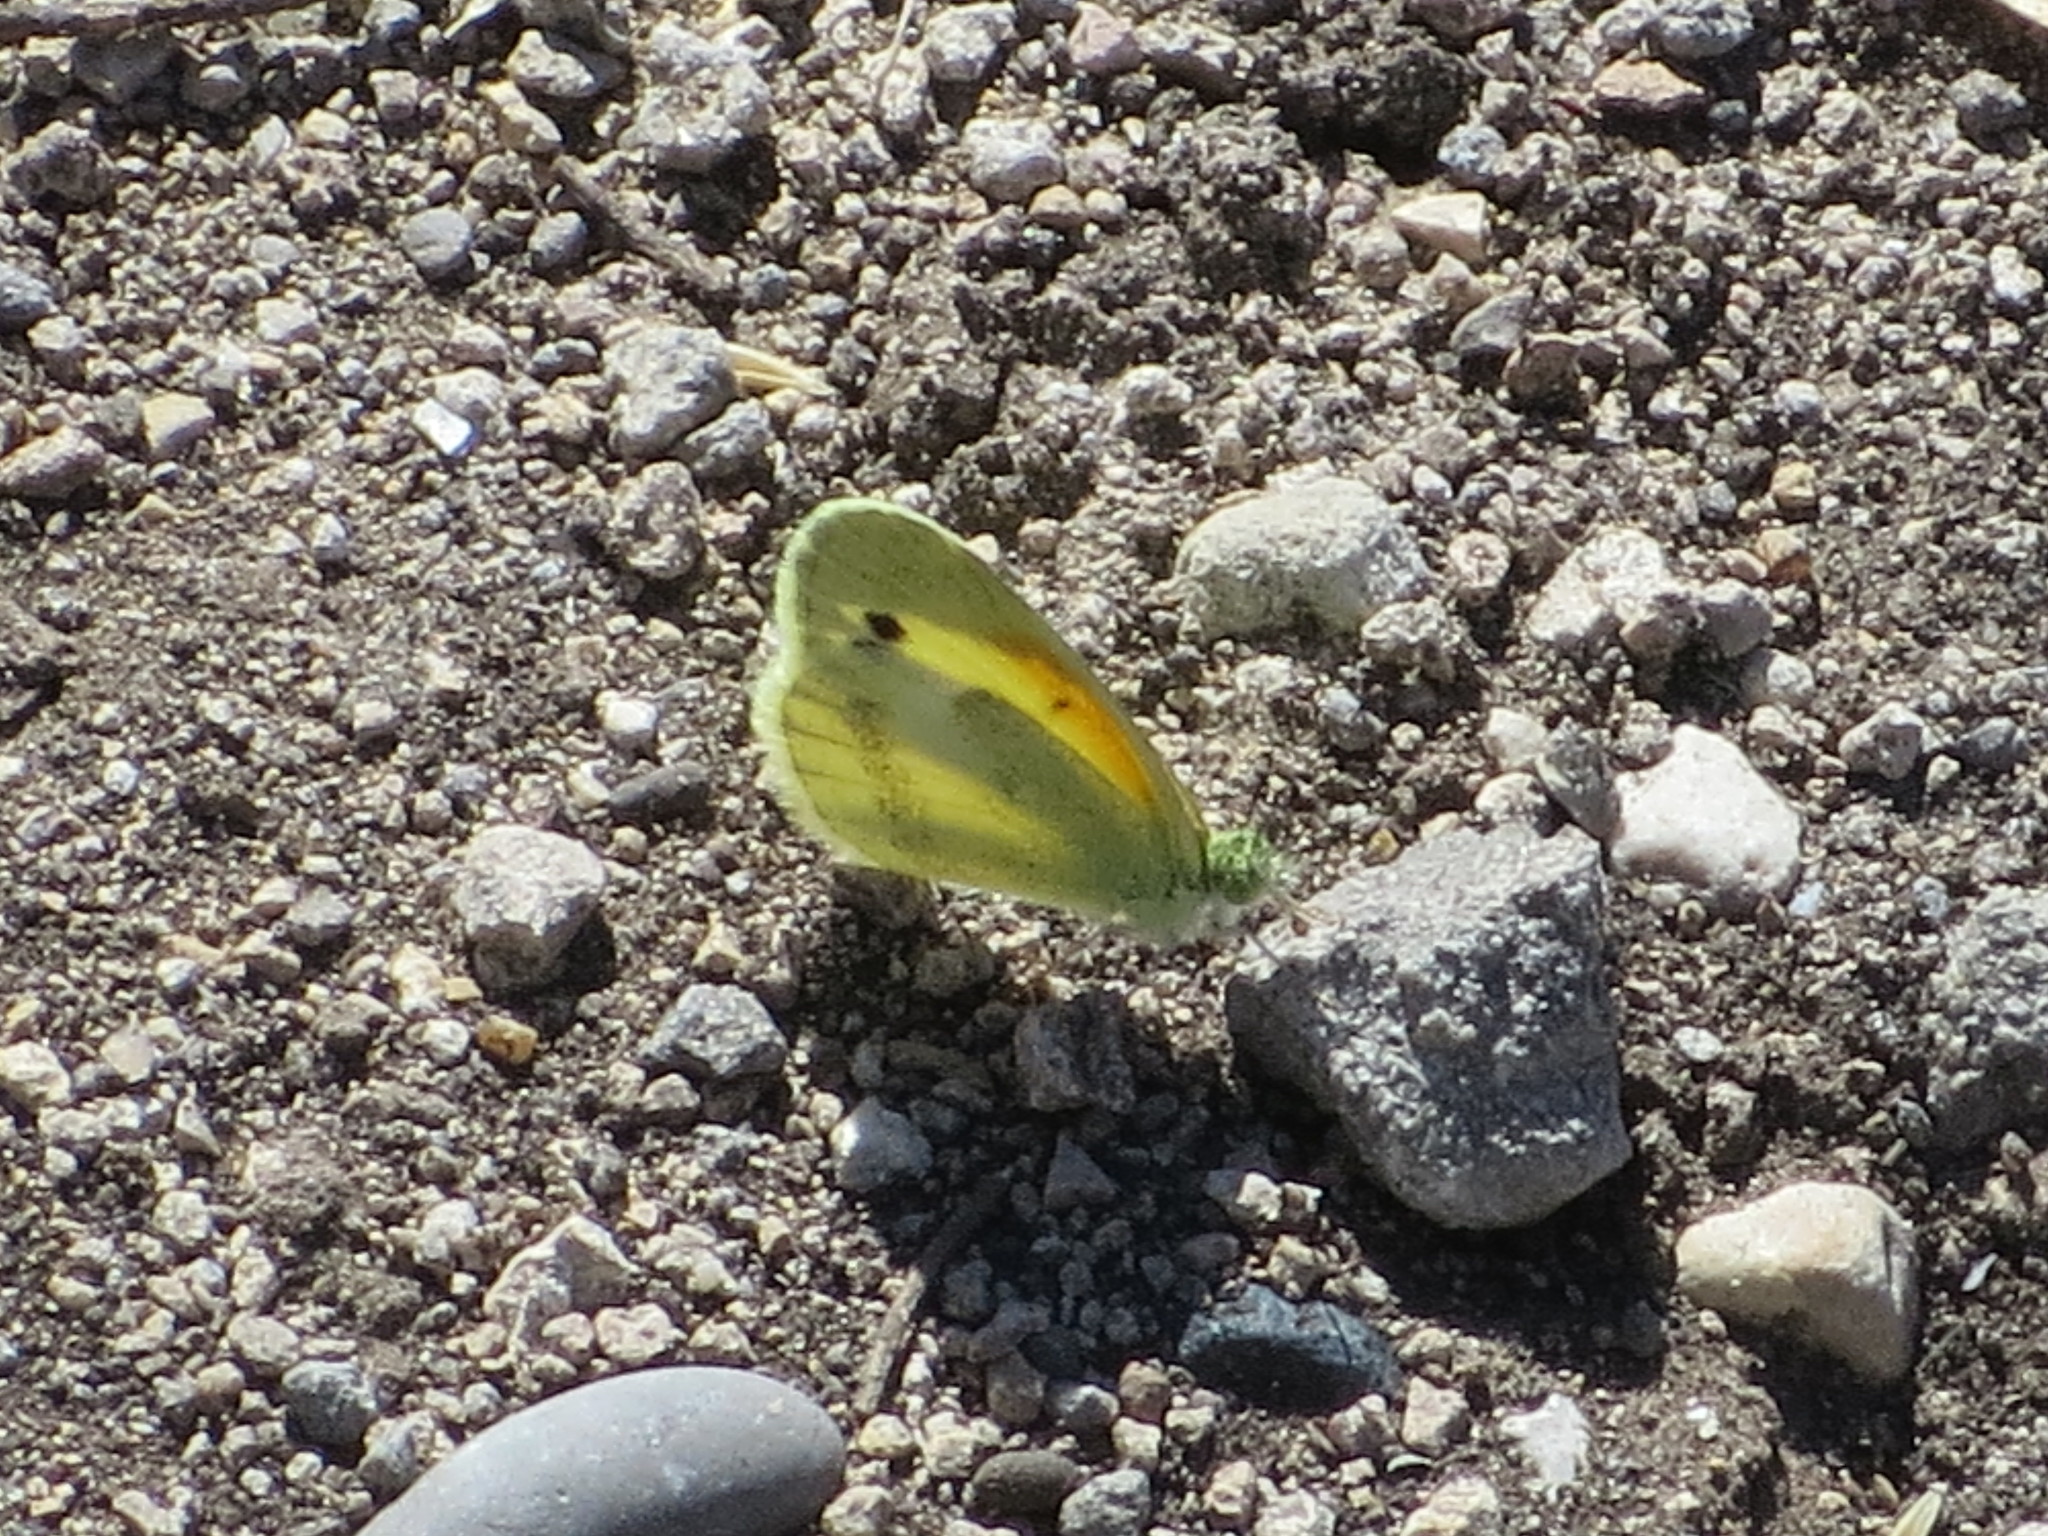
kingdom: Animalia
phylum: Arthropoda
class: Insecta
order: Lepidoptera
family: Pieridae
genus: Nathalis
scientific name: Nathalis iole
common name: Dainty sulphur
